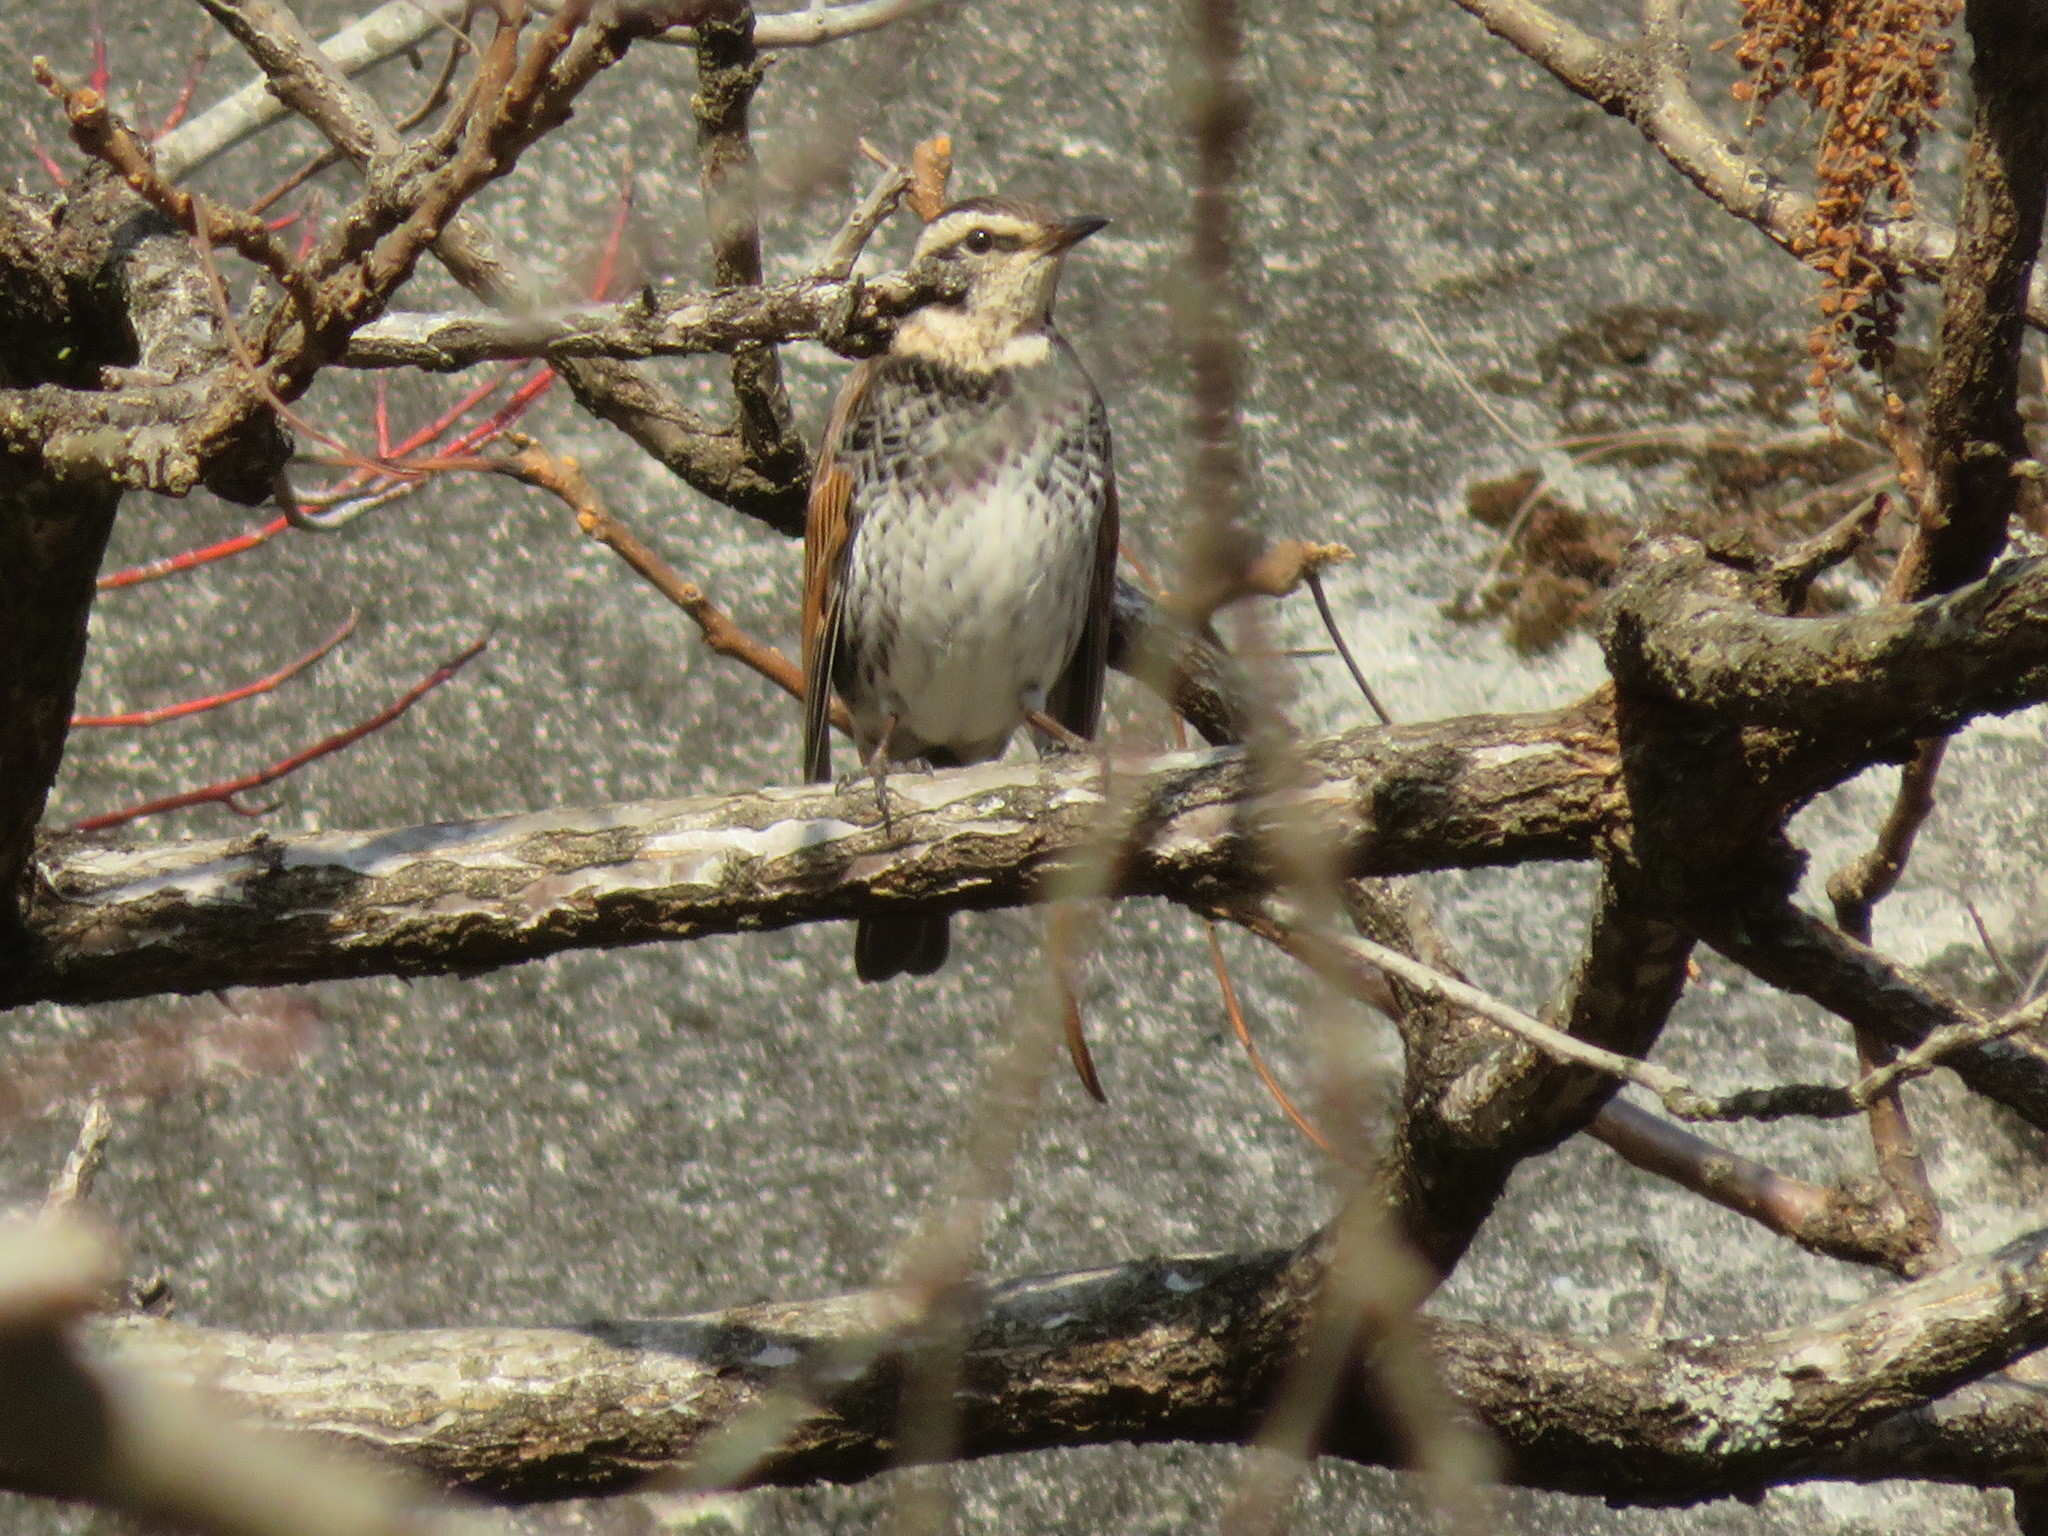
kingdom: Animalia
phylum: Chordata
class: Aves
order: Passeriformes
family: Turdidae
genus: Turdus
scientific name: Turdus eunomus
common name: Dusky thrush
